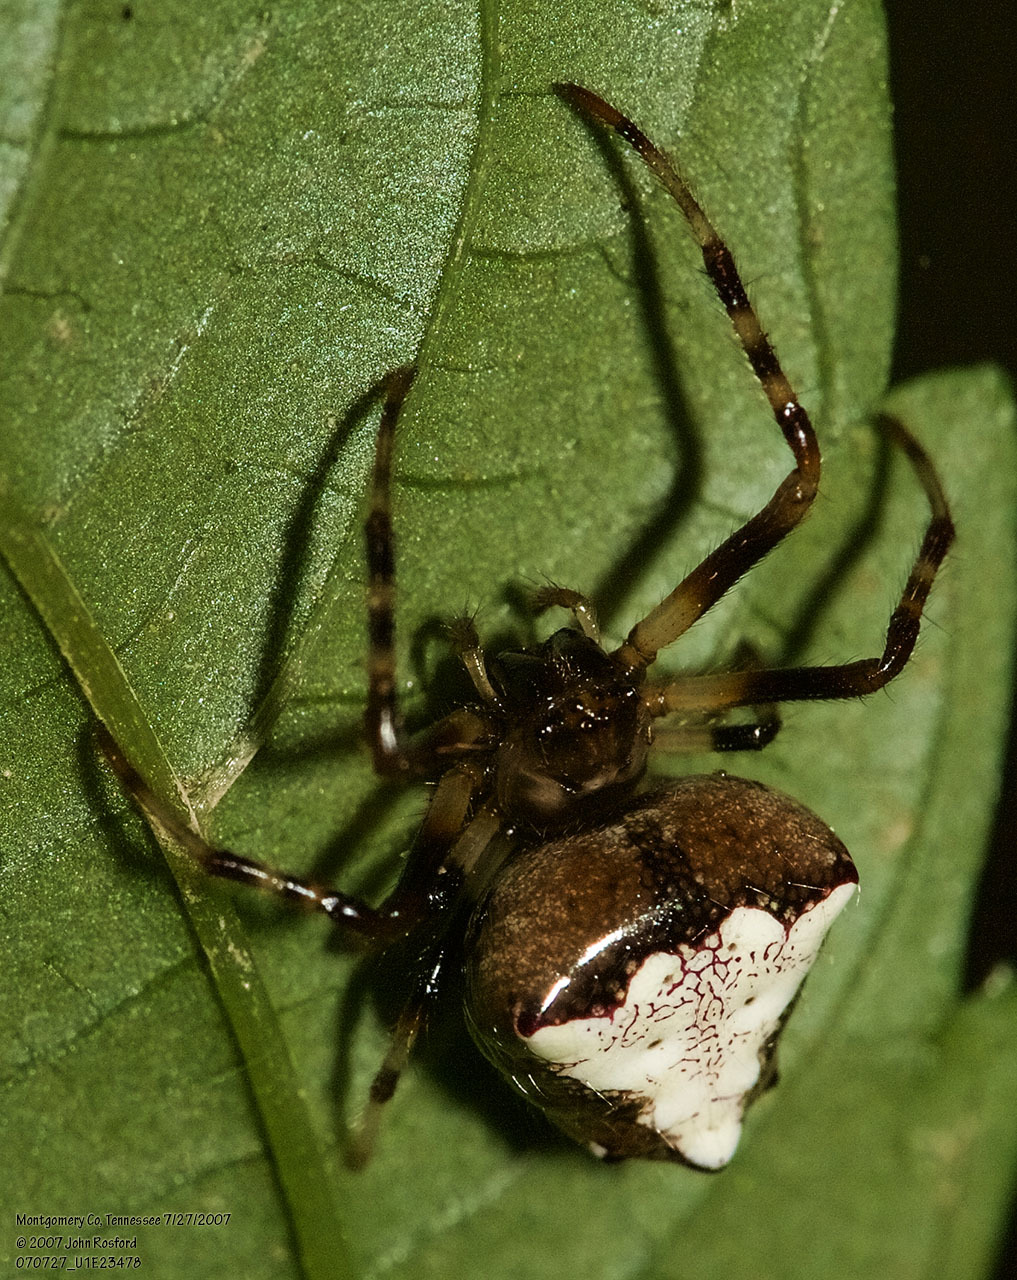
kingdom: Animalia
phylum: Arthropoda
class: Arachnida
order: Araneae
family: Araneidae
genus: Verrucosa
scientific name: Verrucosa arenata
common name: Orb weavers
